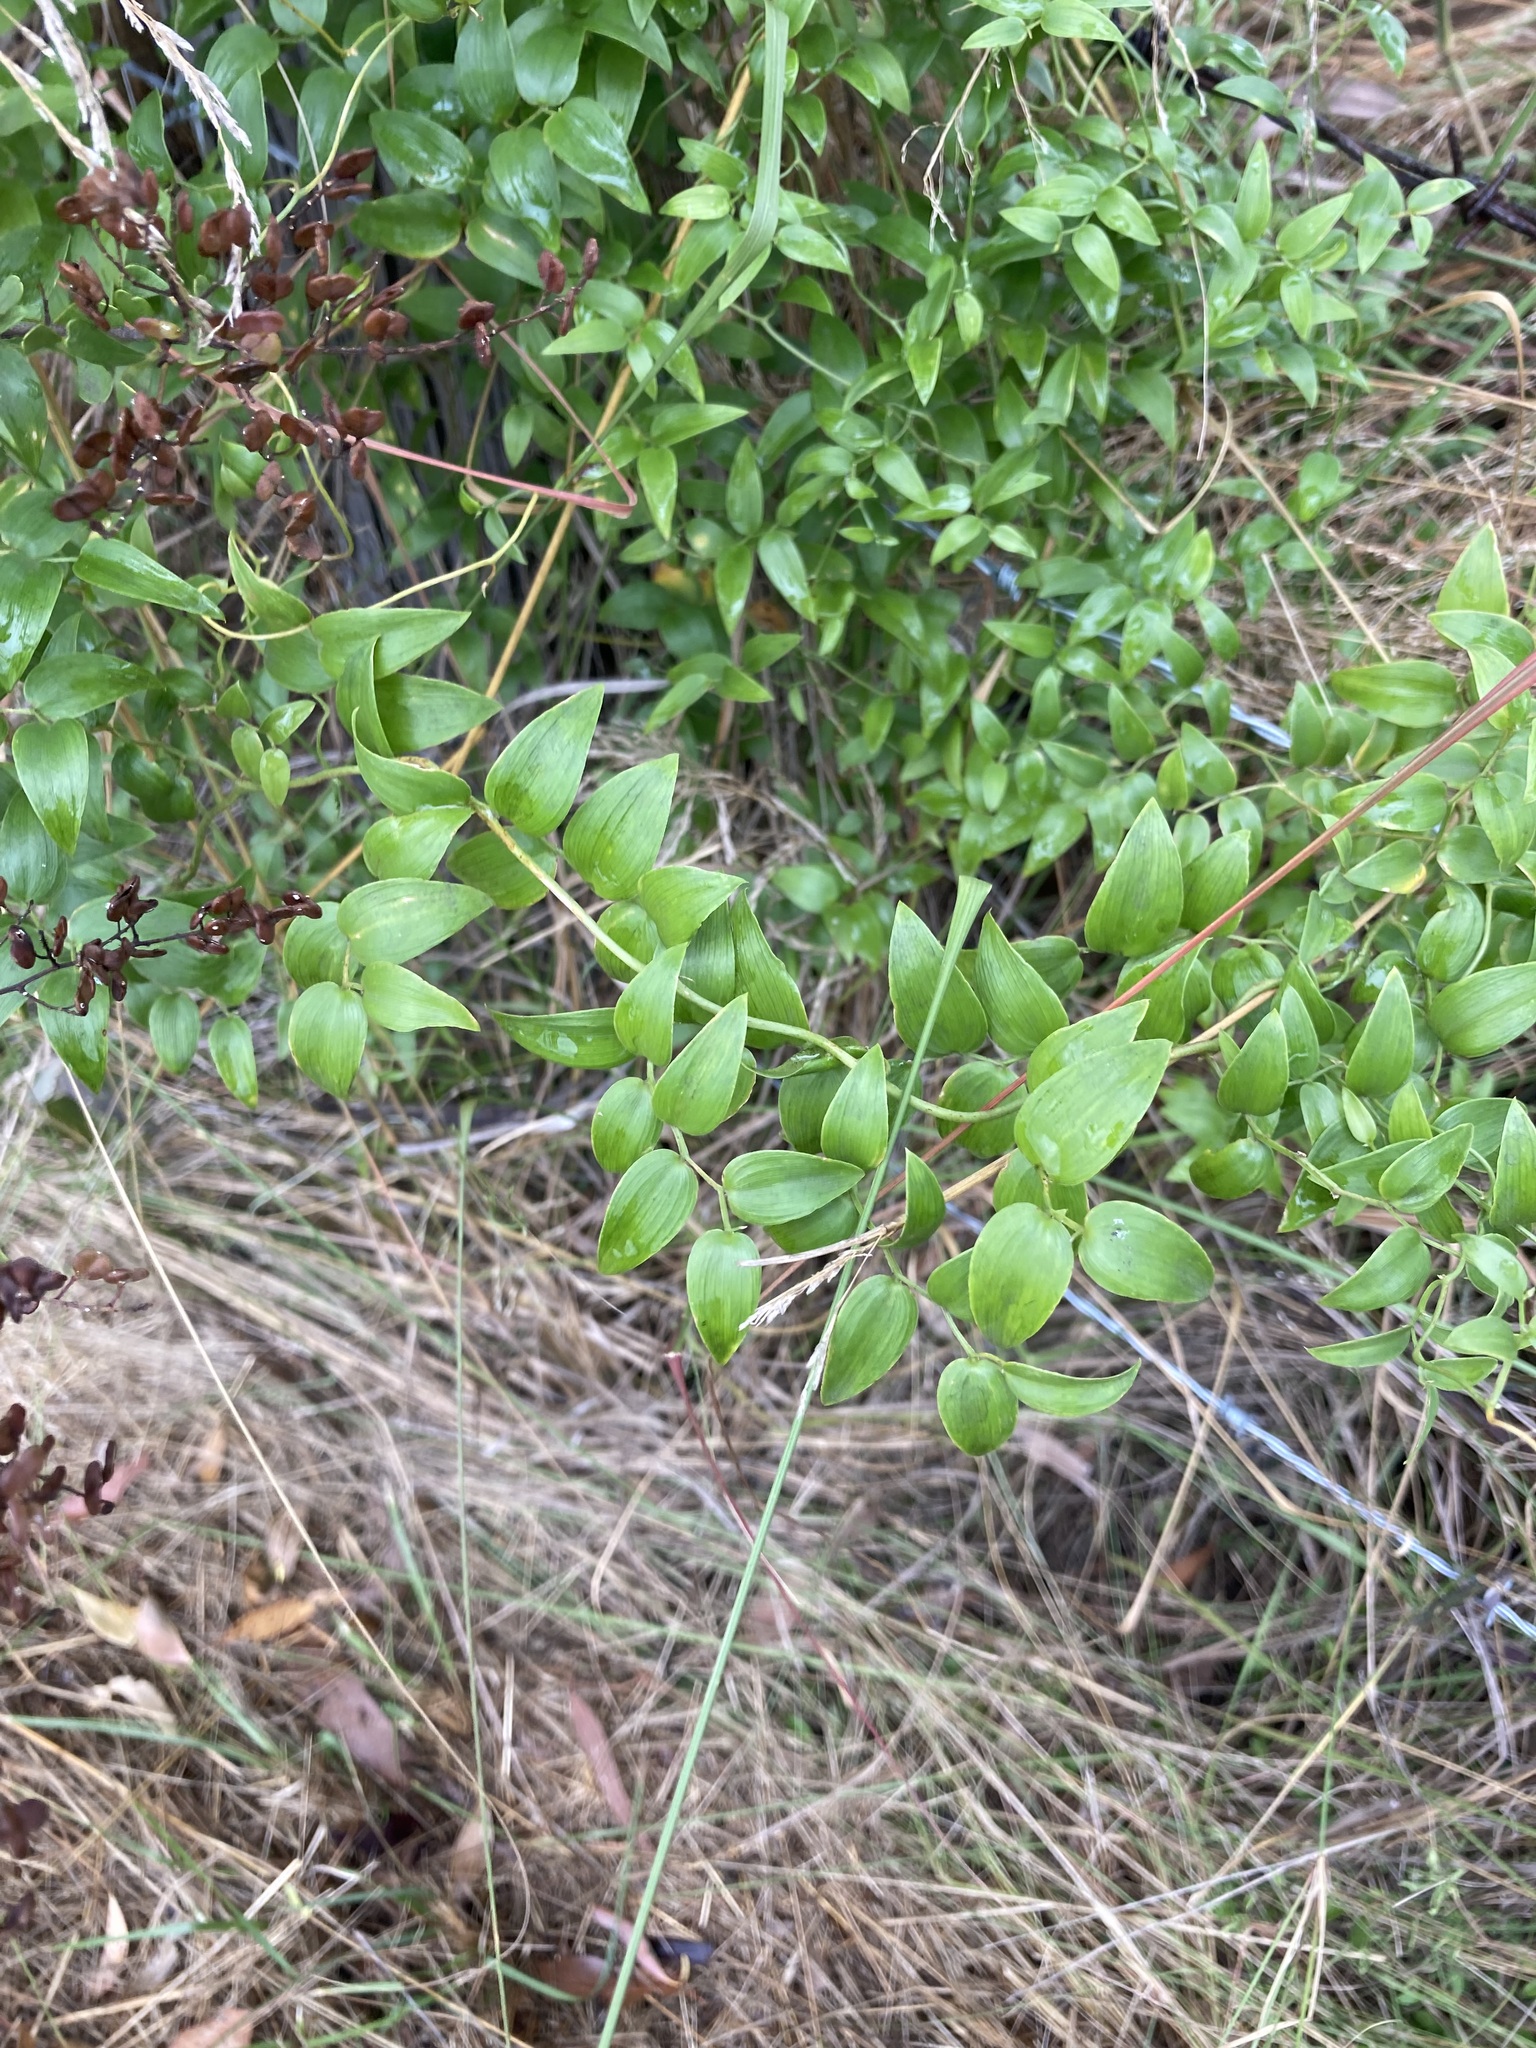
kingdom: Plantae
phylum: Tracheophyta
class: Liliopsida
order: Asparagales
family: Asparagaceae
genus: Asparagus
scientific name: Asparagus asparagoides
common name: African asparagus fern
